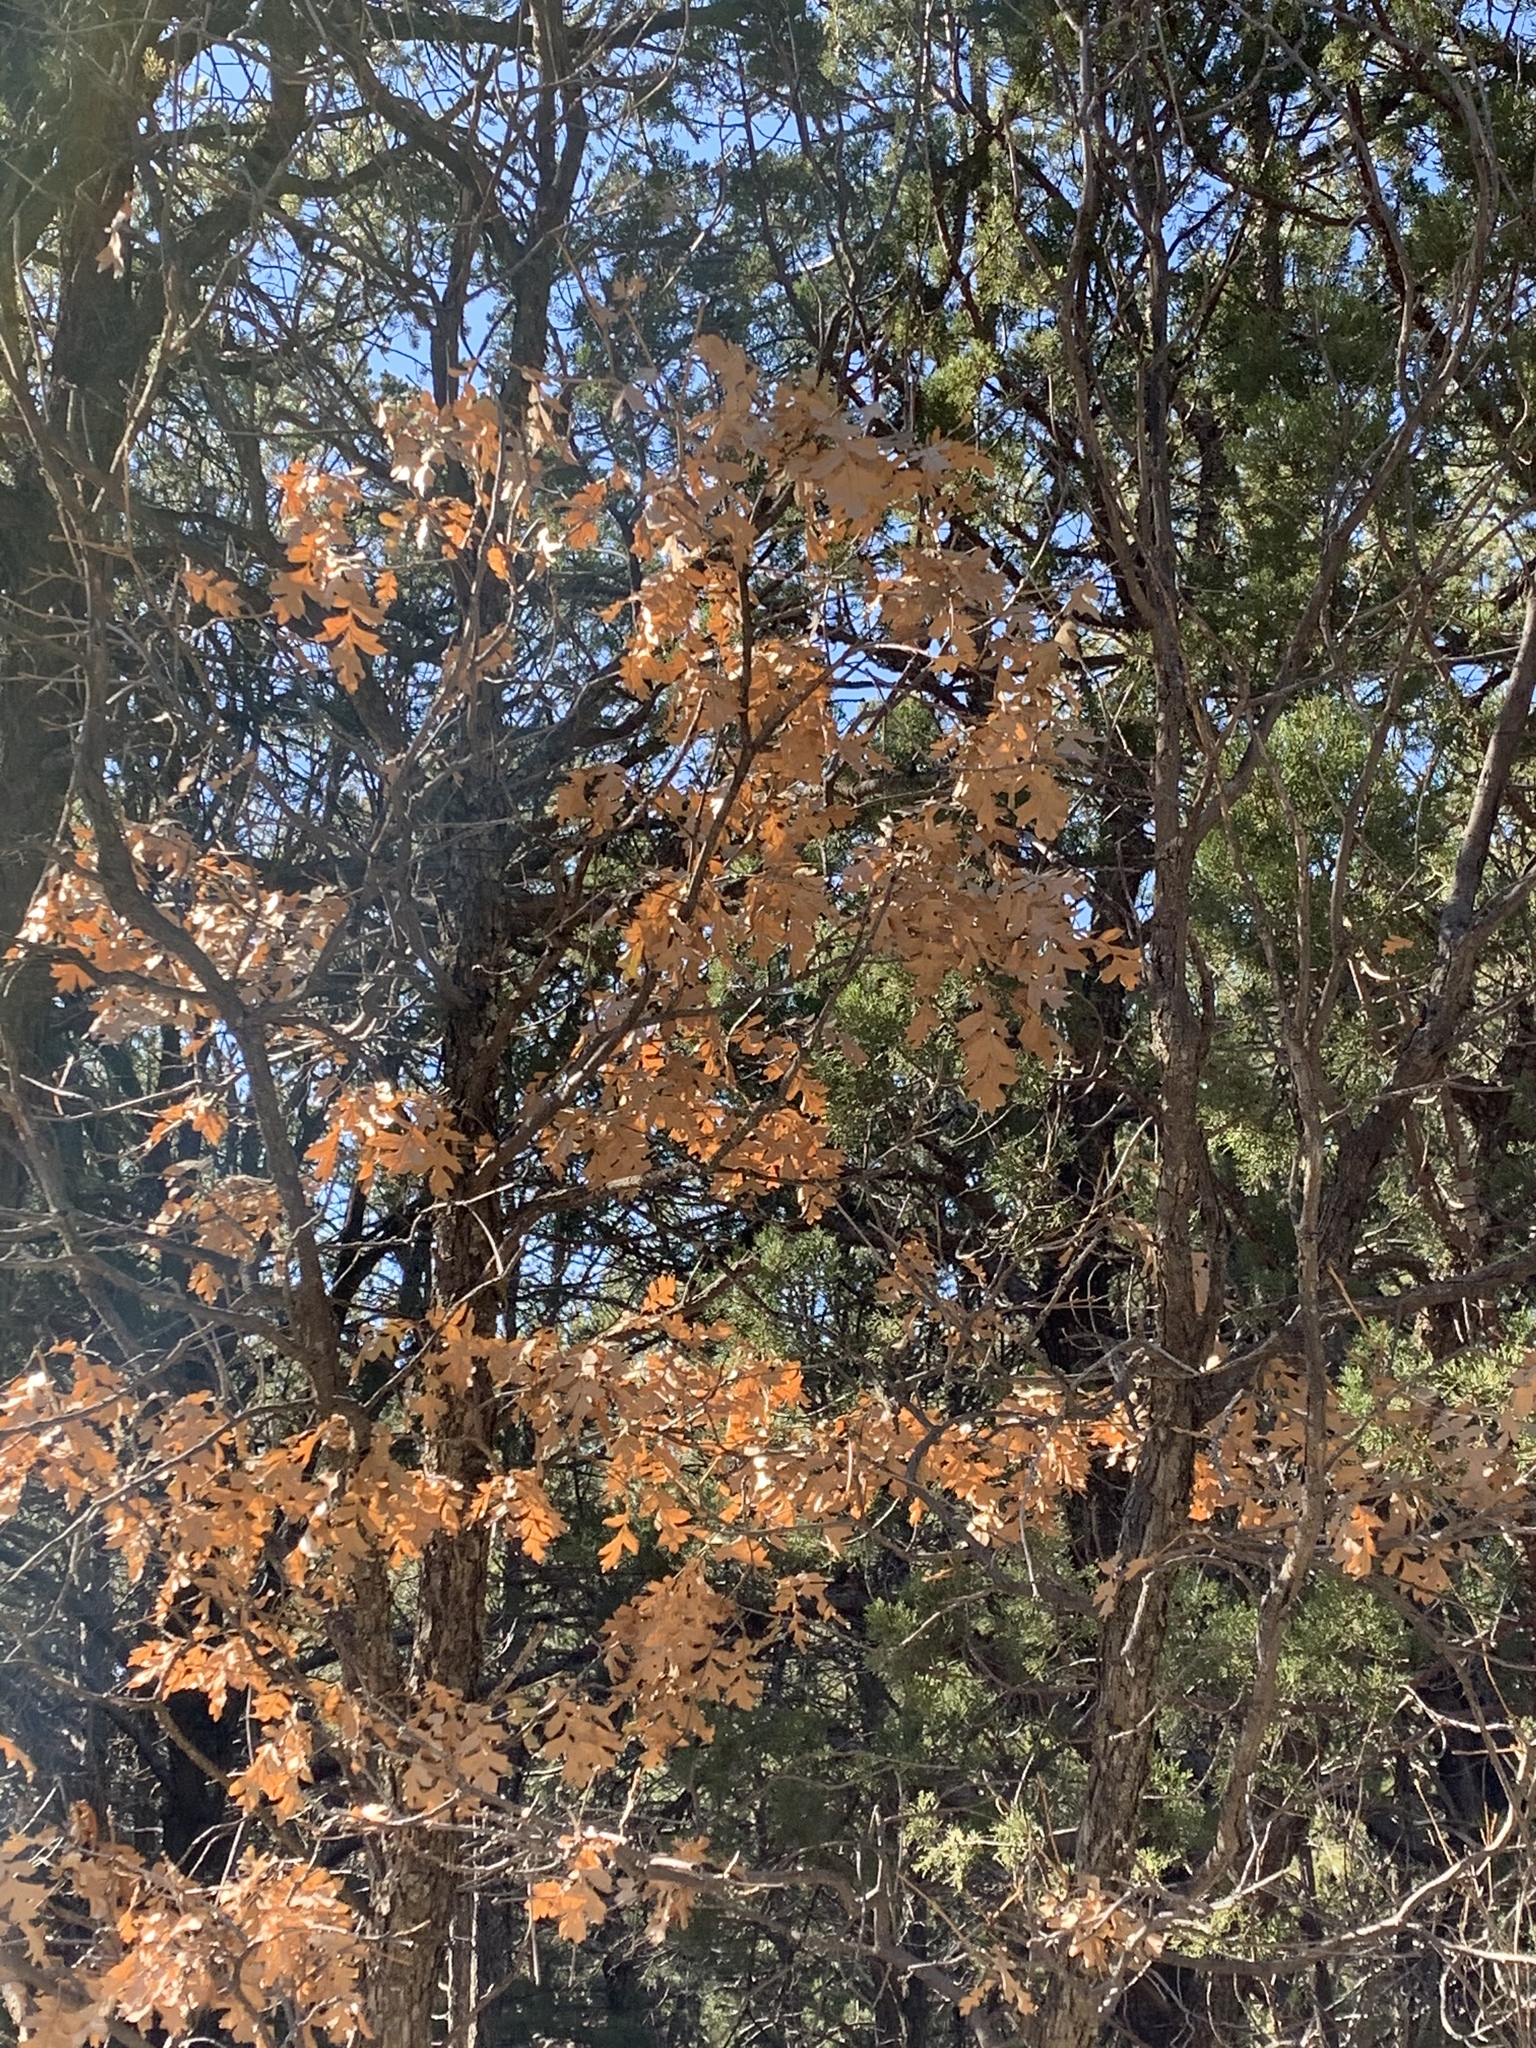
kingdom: Plantae
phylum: Tracheophyta
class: Magnoliopsida
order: Fagales
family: Fagaceae
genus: Quercus
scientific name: Quercus gambelii
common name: Gambel oak
